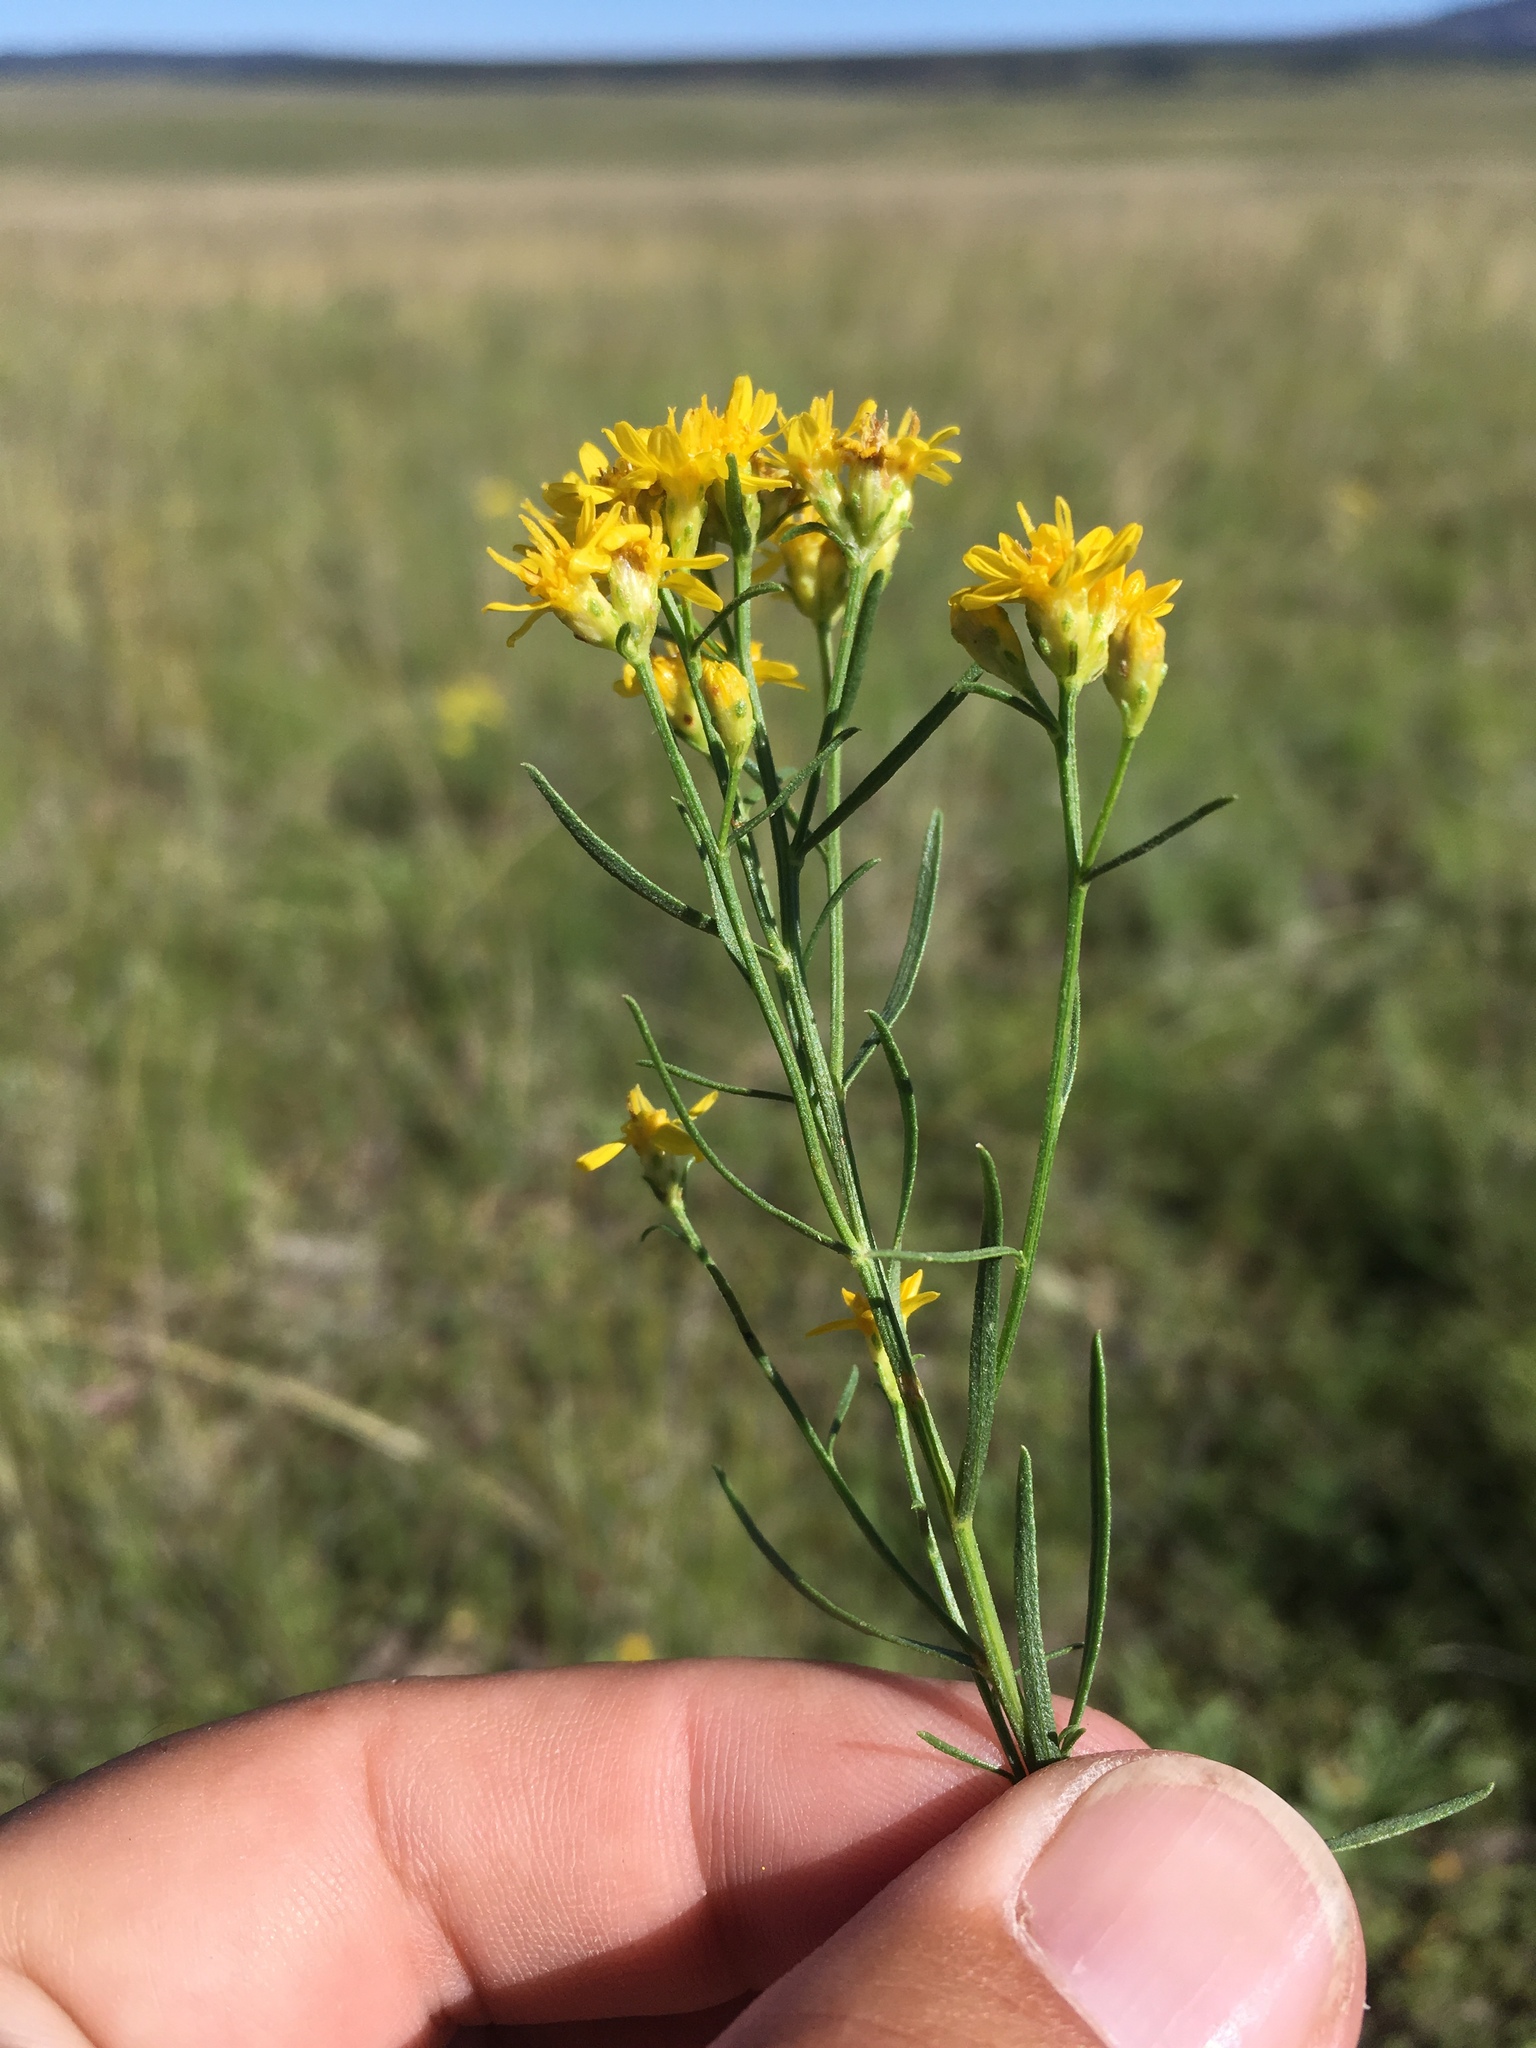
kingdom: Plantae
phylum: Tracheophyta
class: Magnoliopsida
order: Asterales
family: Asteraceae
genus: Gutierrezia
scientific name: Gutierrezia sarothrae
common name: Broom snakeweed
